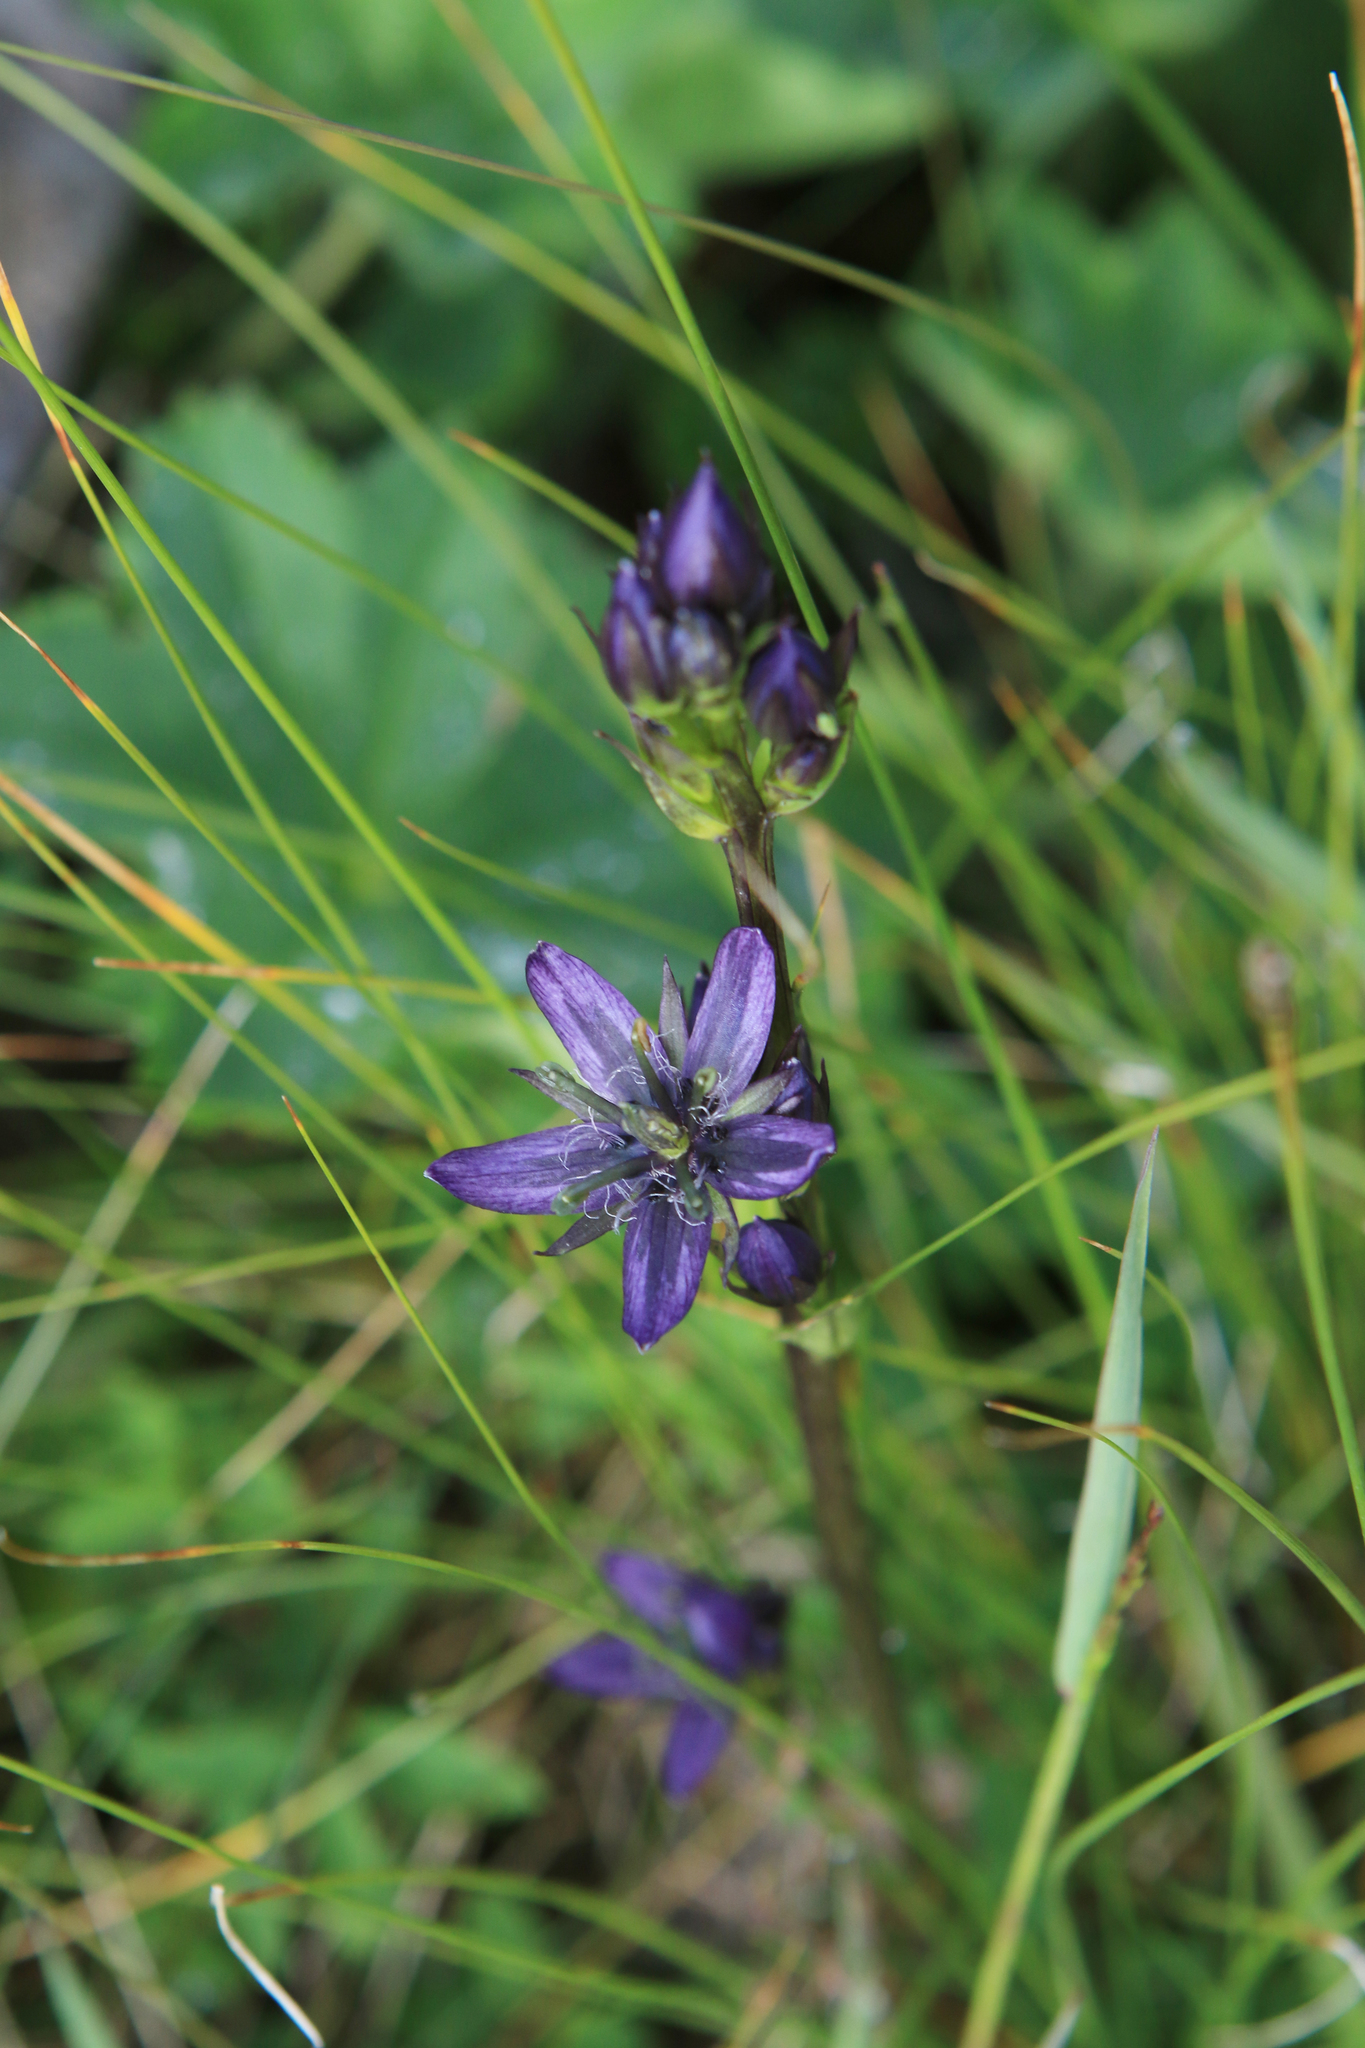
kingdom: Plantae
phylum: Tracheophyta
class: Magnoliopsida
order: Gentianales
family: Gentianaceae
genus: Swertia
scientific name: Swertia obtusa
